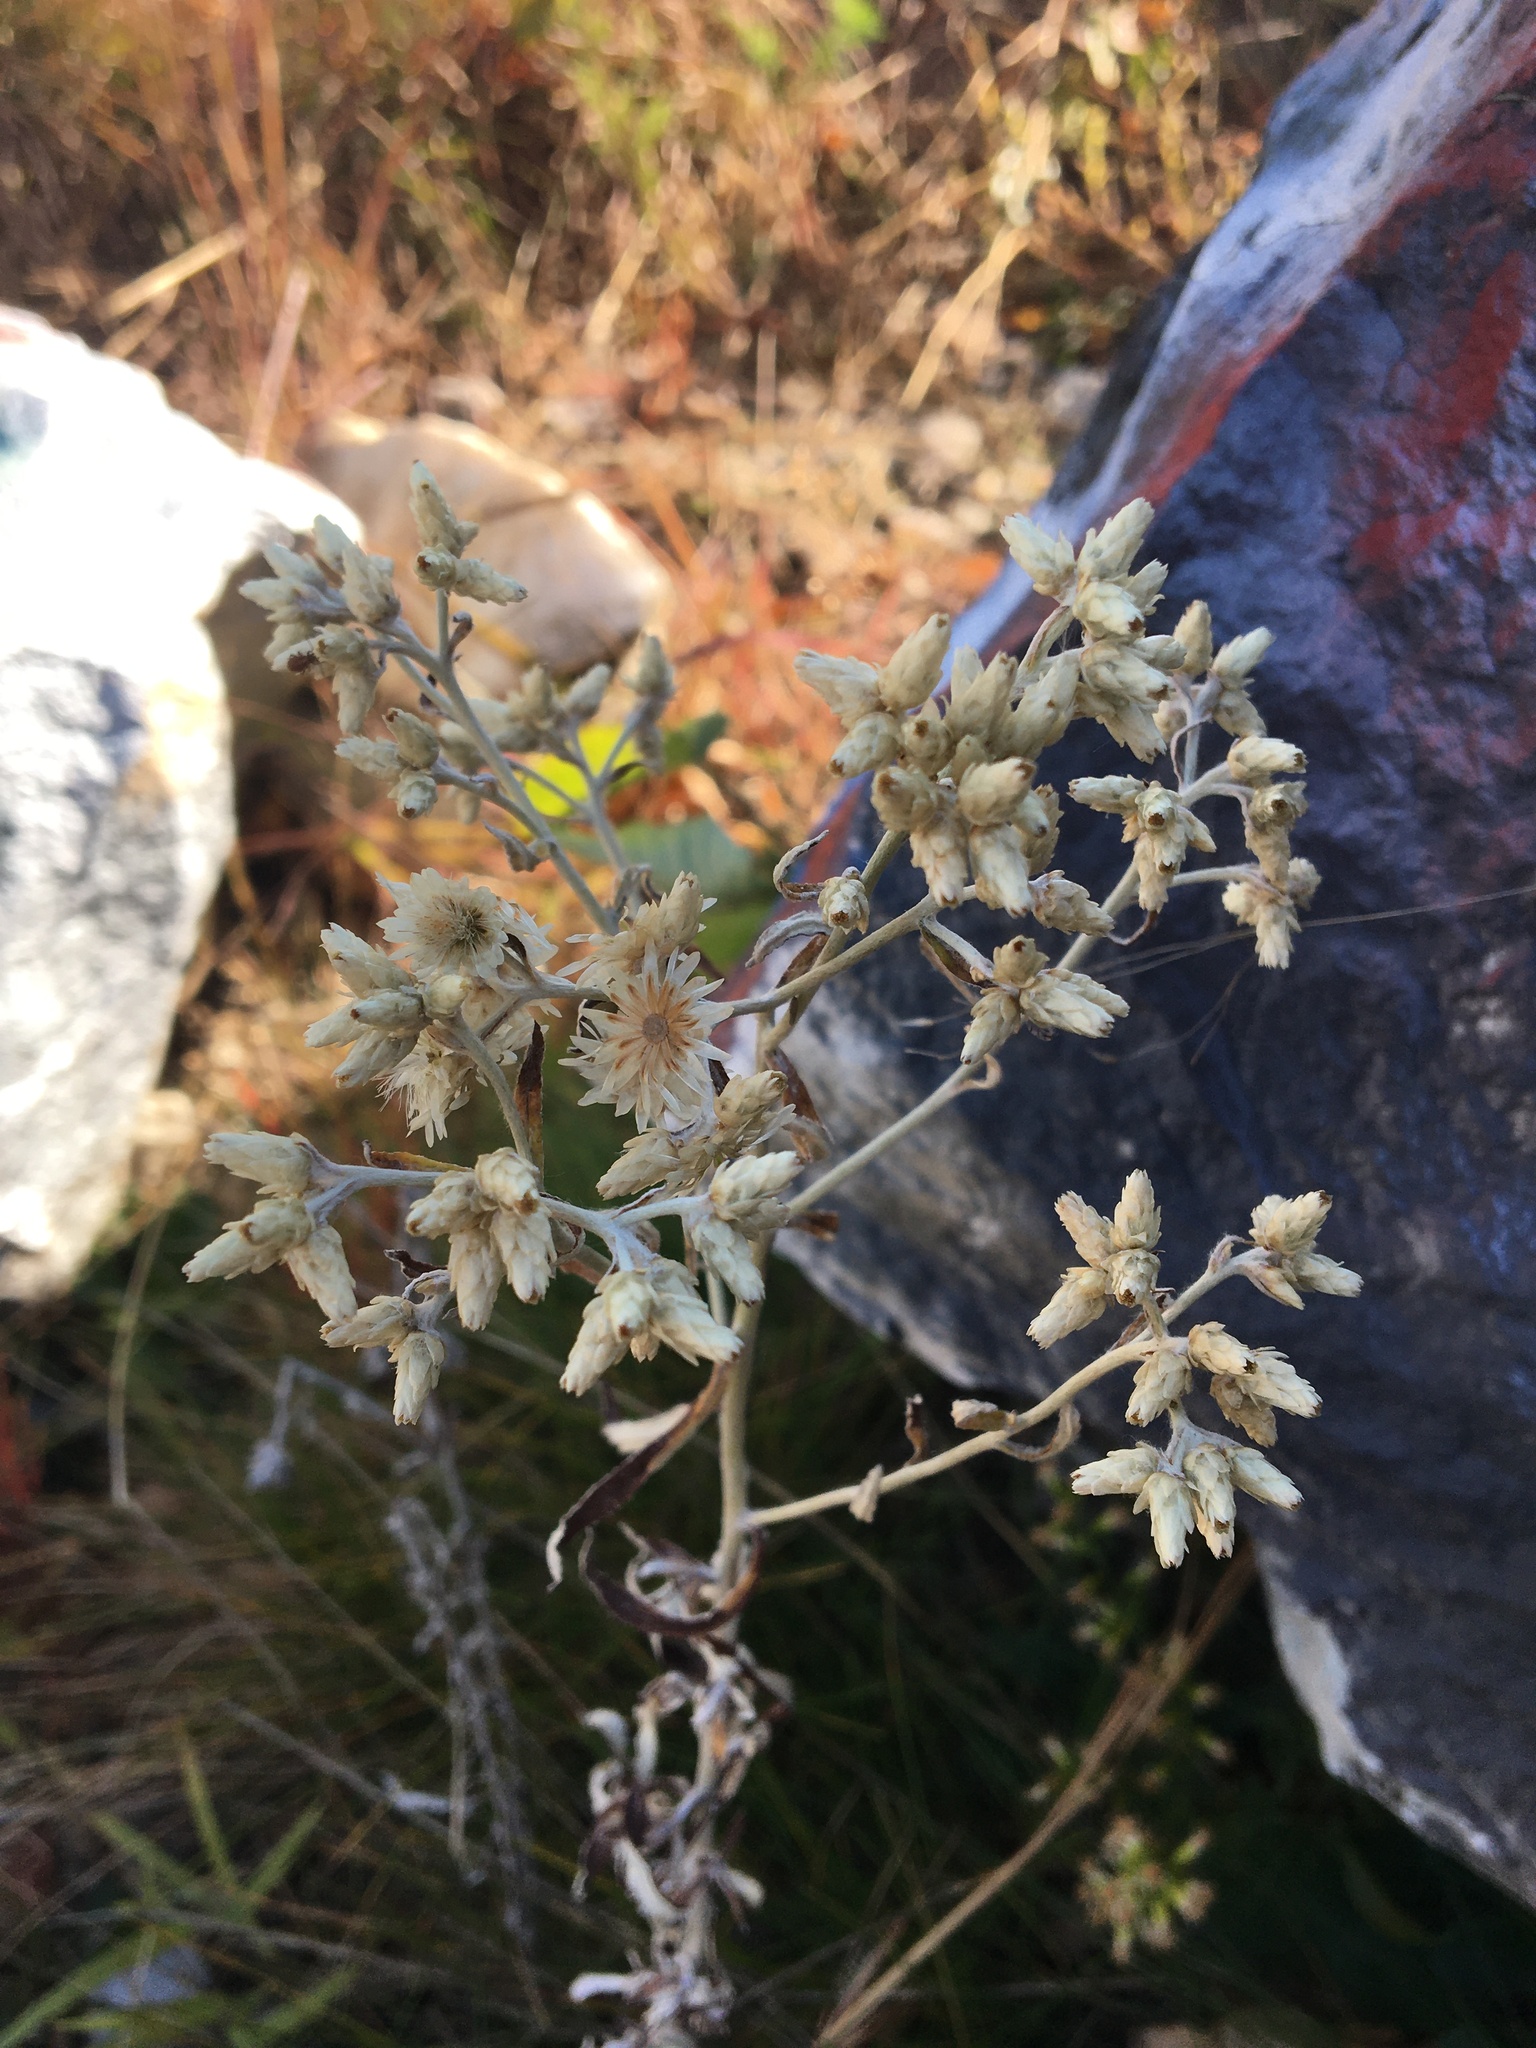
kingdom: Plantae
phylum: Tracheophyta
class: Magnoliopsida
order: Asterales
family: Asteraceae
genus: Pseudognaphalium
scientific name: Pseudognaphalium obtusifolium
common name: Eastern rabbit-tobacco
